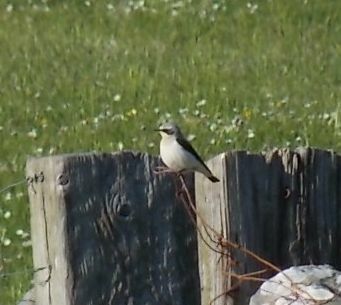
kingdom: Animalia
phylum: Chordata
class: Aves
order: Passeriformes
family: Muscicapidae
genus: Oenanthe
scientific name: Oenanthe oenanthe
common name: Northern wheatear
